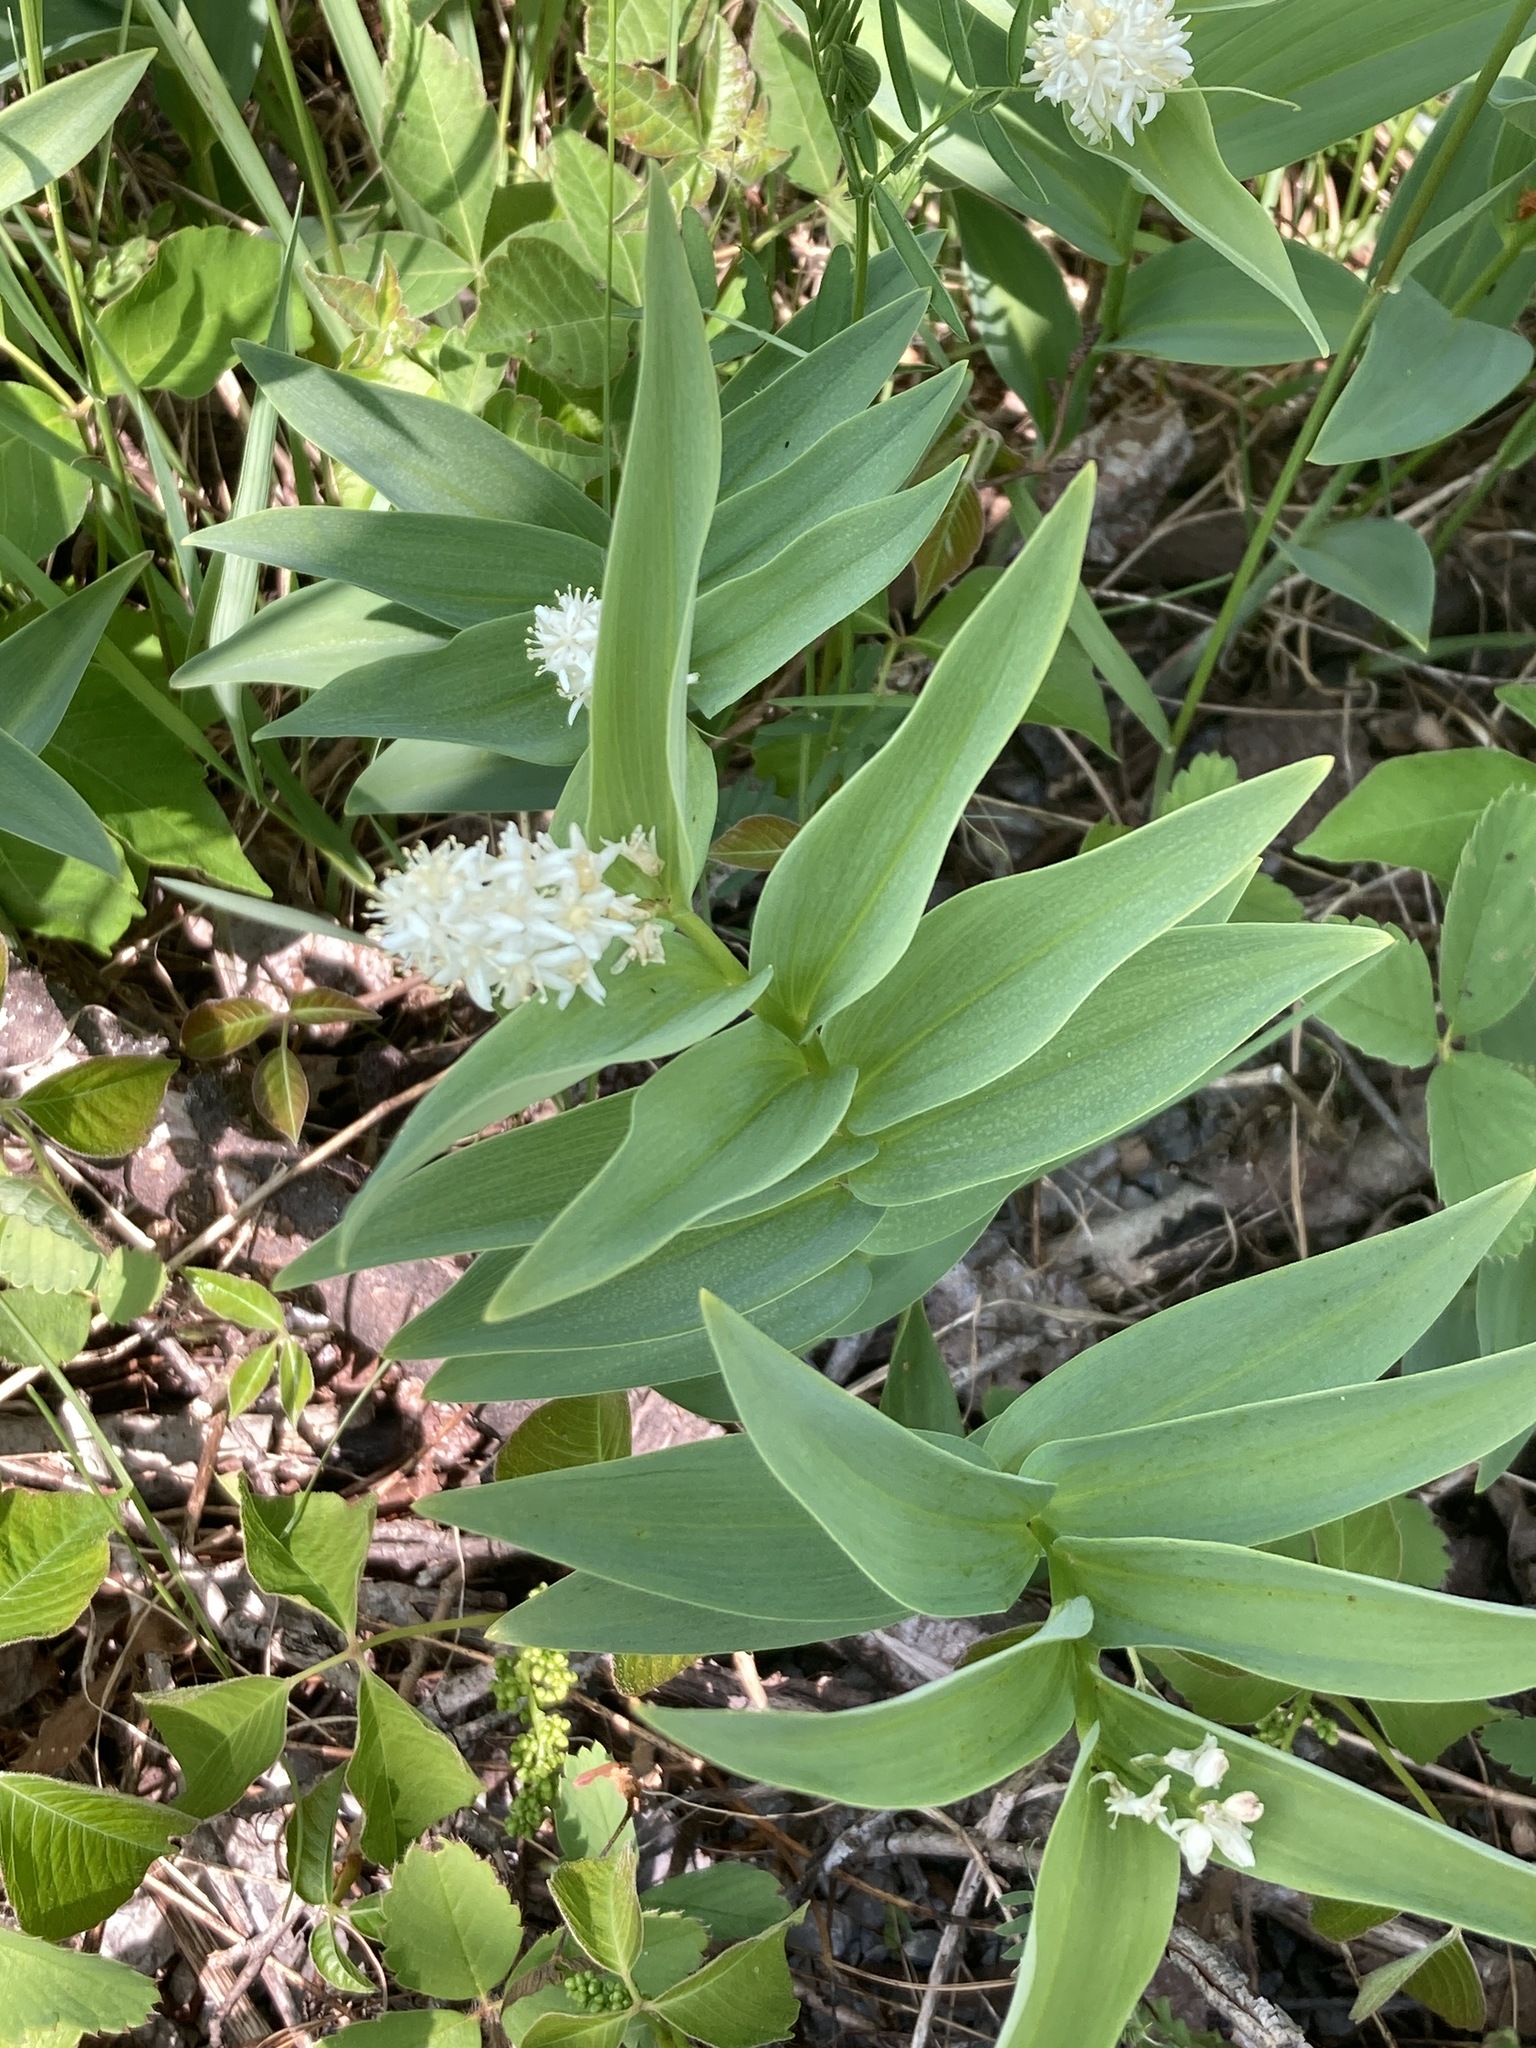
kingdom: Plantae
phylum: Tracheophyta
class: Liliopsida
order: Asparagales
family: Asparagaceae
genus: Maianthemum
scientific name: Maianthemum stellatum
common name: Little false solomon's seal
